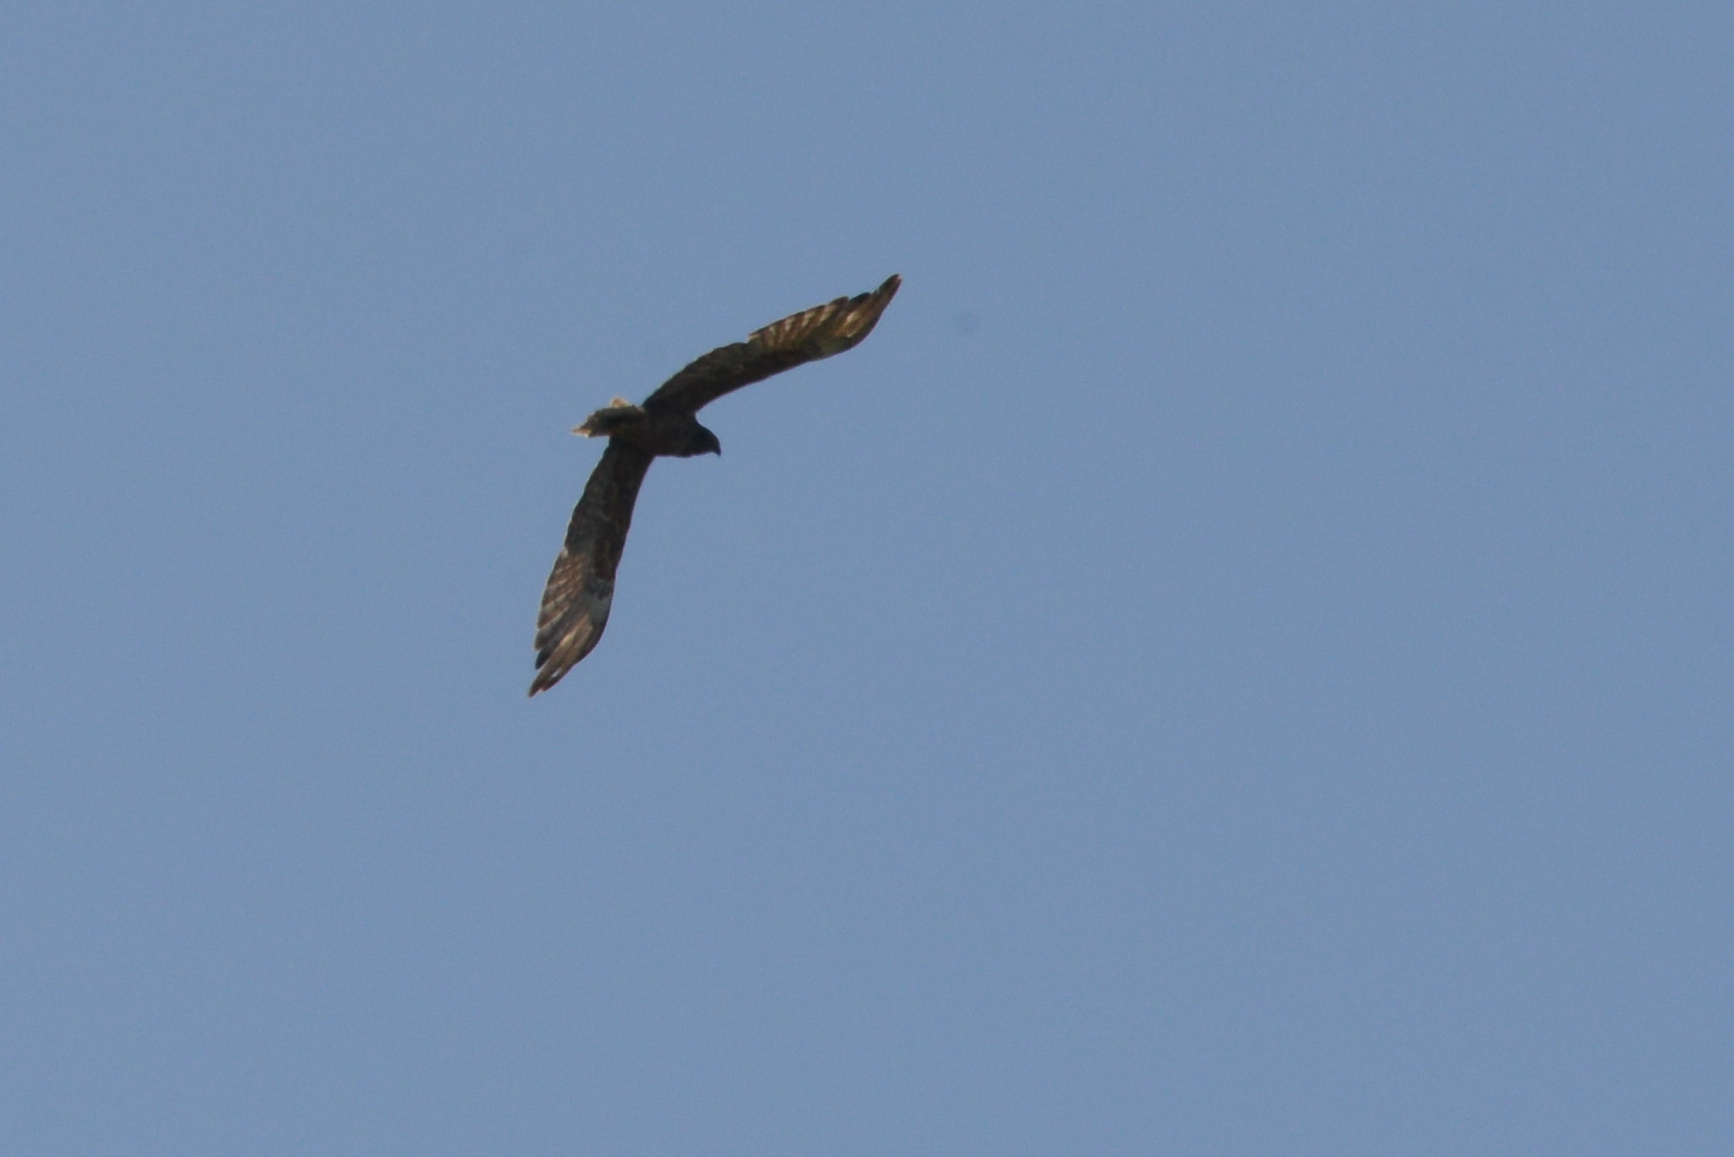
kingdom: Animalia
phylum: Chordata
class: Aves
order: Accipitriformes
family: Accipitridae
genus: Circus
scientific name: Circus approximans
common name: Swamp harrier
